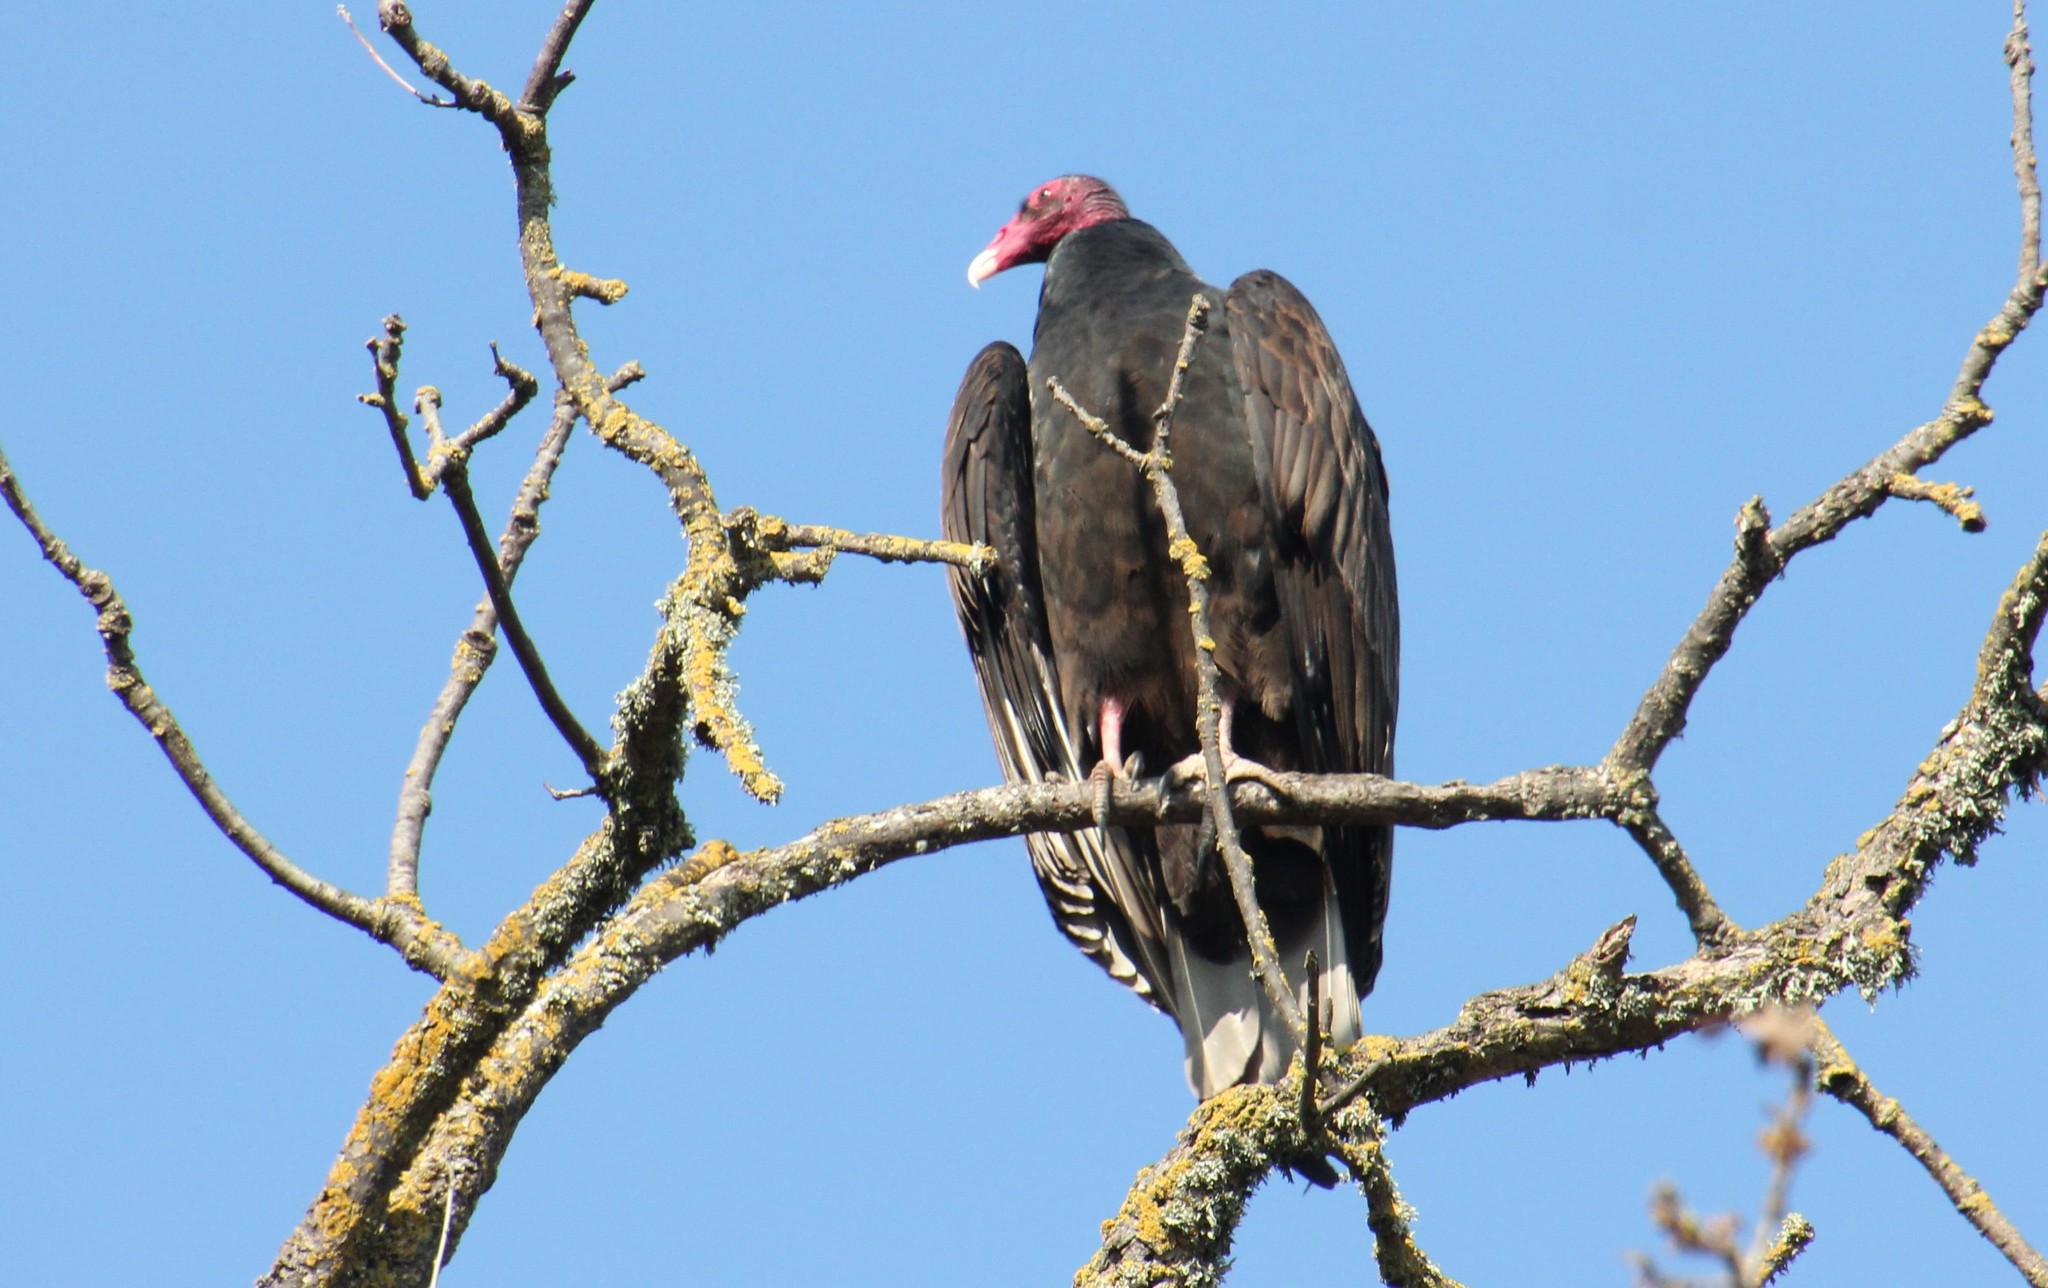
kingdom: Animalia
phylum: Chordata
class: Aves
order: Accipitriformes
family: Cathartidae
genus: Cathartes
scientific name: Cathartes aura
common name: Turkey vulture
